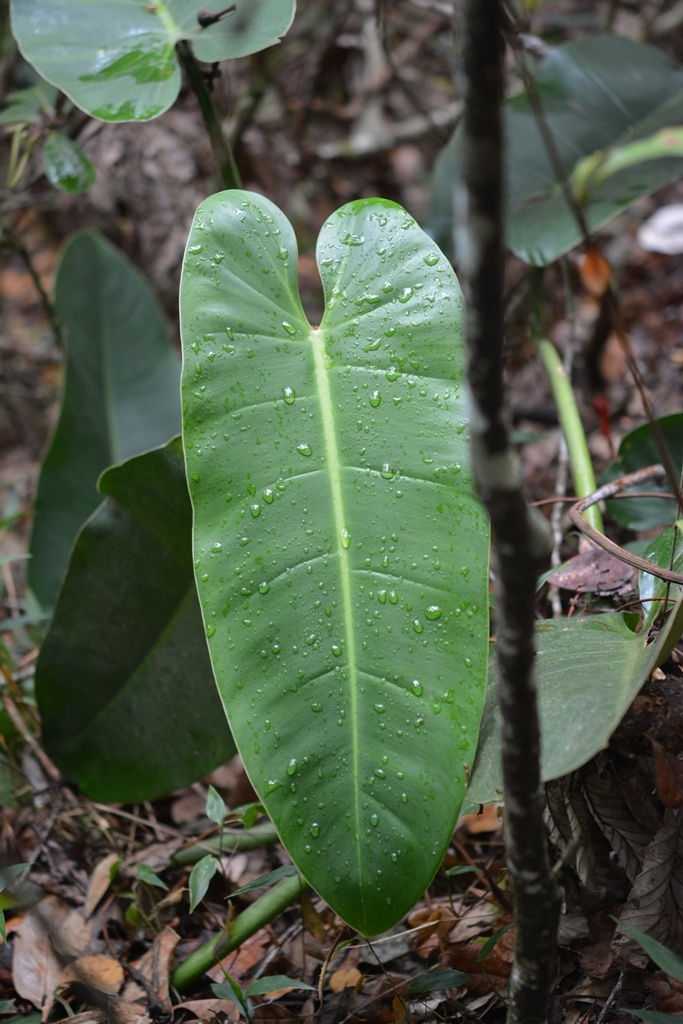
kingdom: Plantae
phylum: Tracheophyta
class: Liliopsida
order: Alismatales
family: Araceae
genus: Philodendron
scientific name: Philodendron sagittifolium
